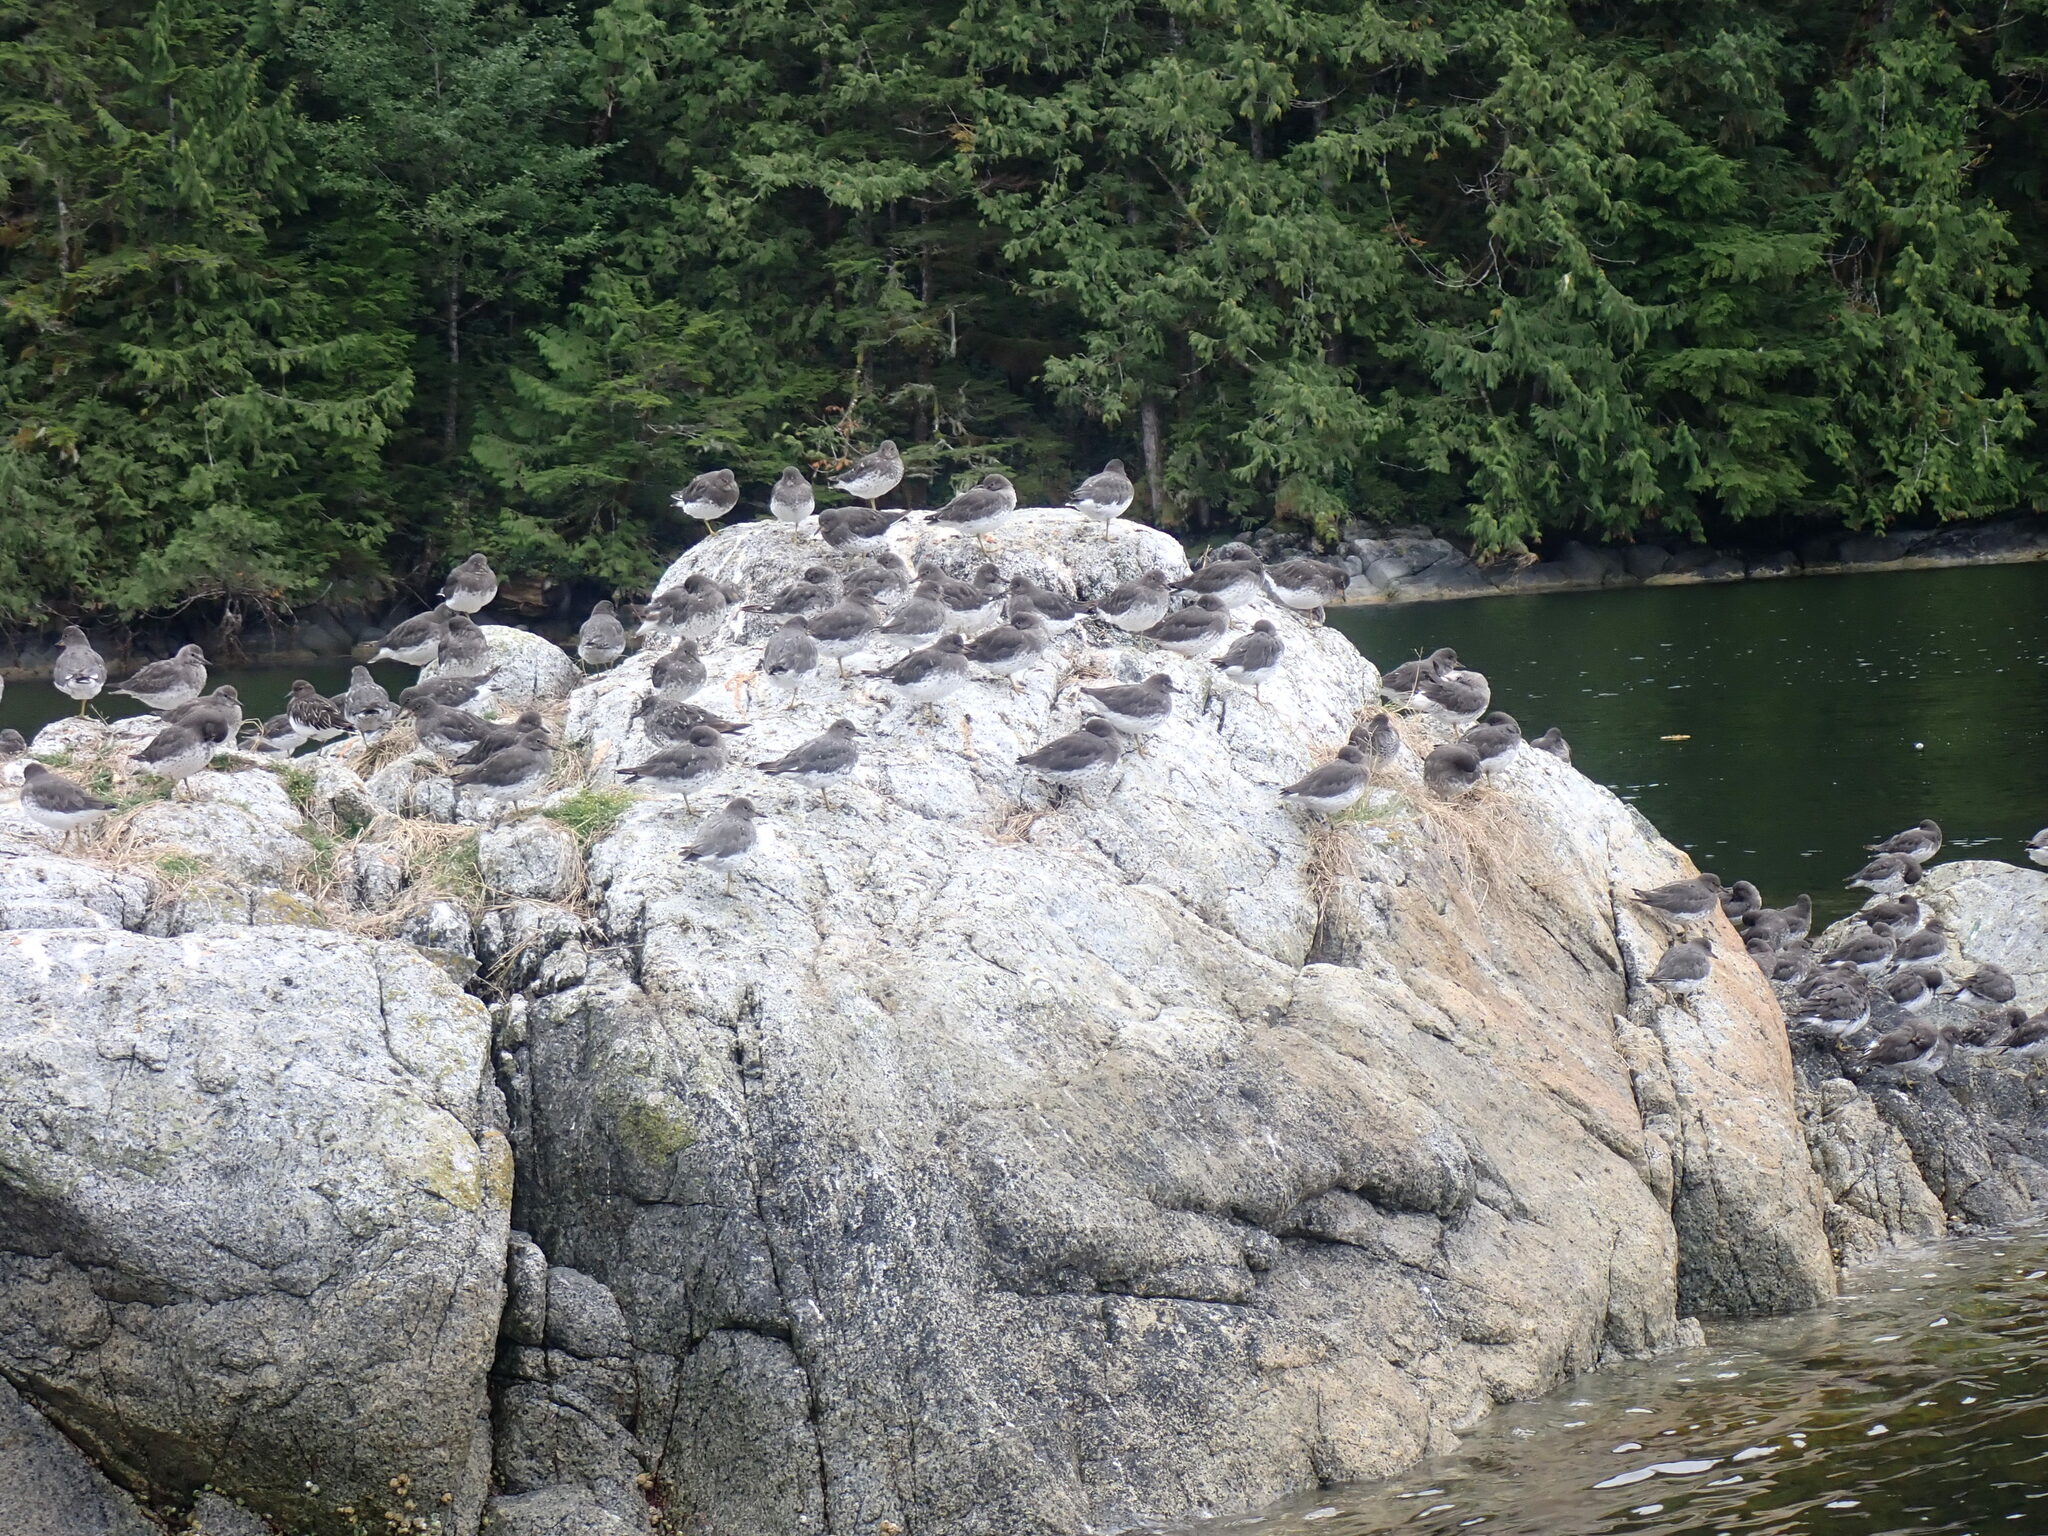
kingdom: Animalia
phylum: Chordata
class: Aves
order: Charadriiformes
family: Scolopacidae
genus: Calidris
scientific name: Calidris virgata
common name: Surfbird
